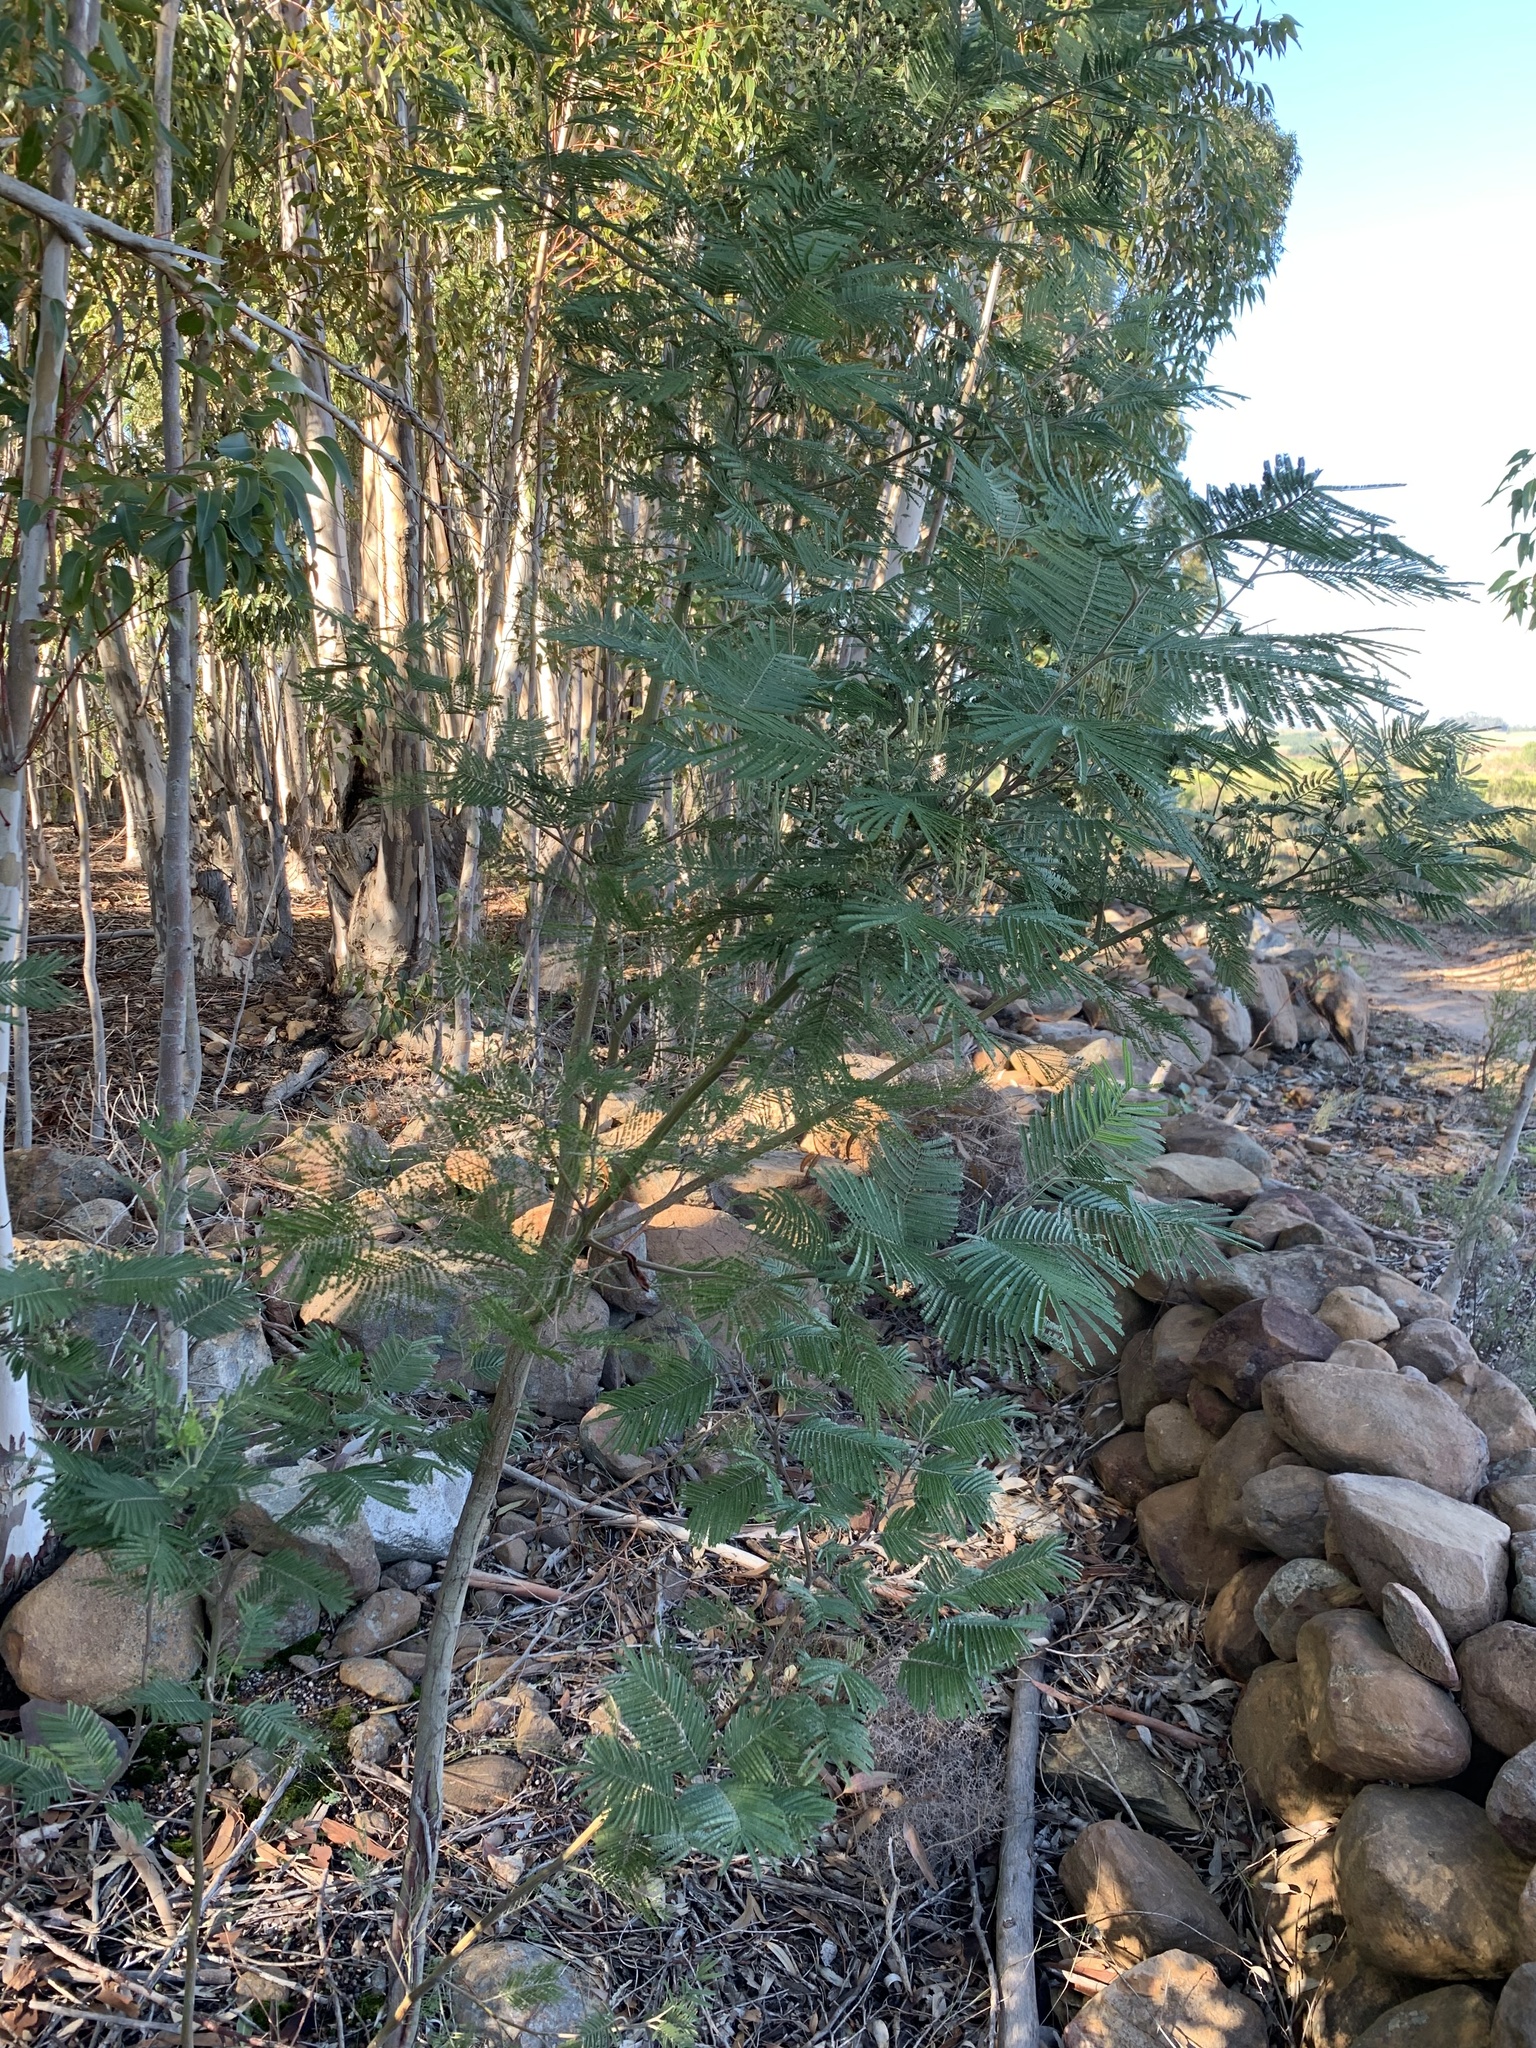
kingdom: Plantae
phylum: Tracheophyta
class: Magnoliopsida
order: Fabales
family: Fabaceae
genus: Acacia
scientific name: Acacia mearnsii
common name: Black wattle
